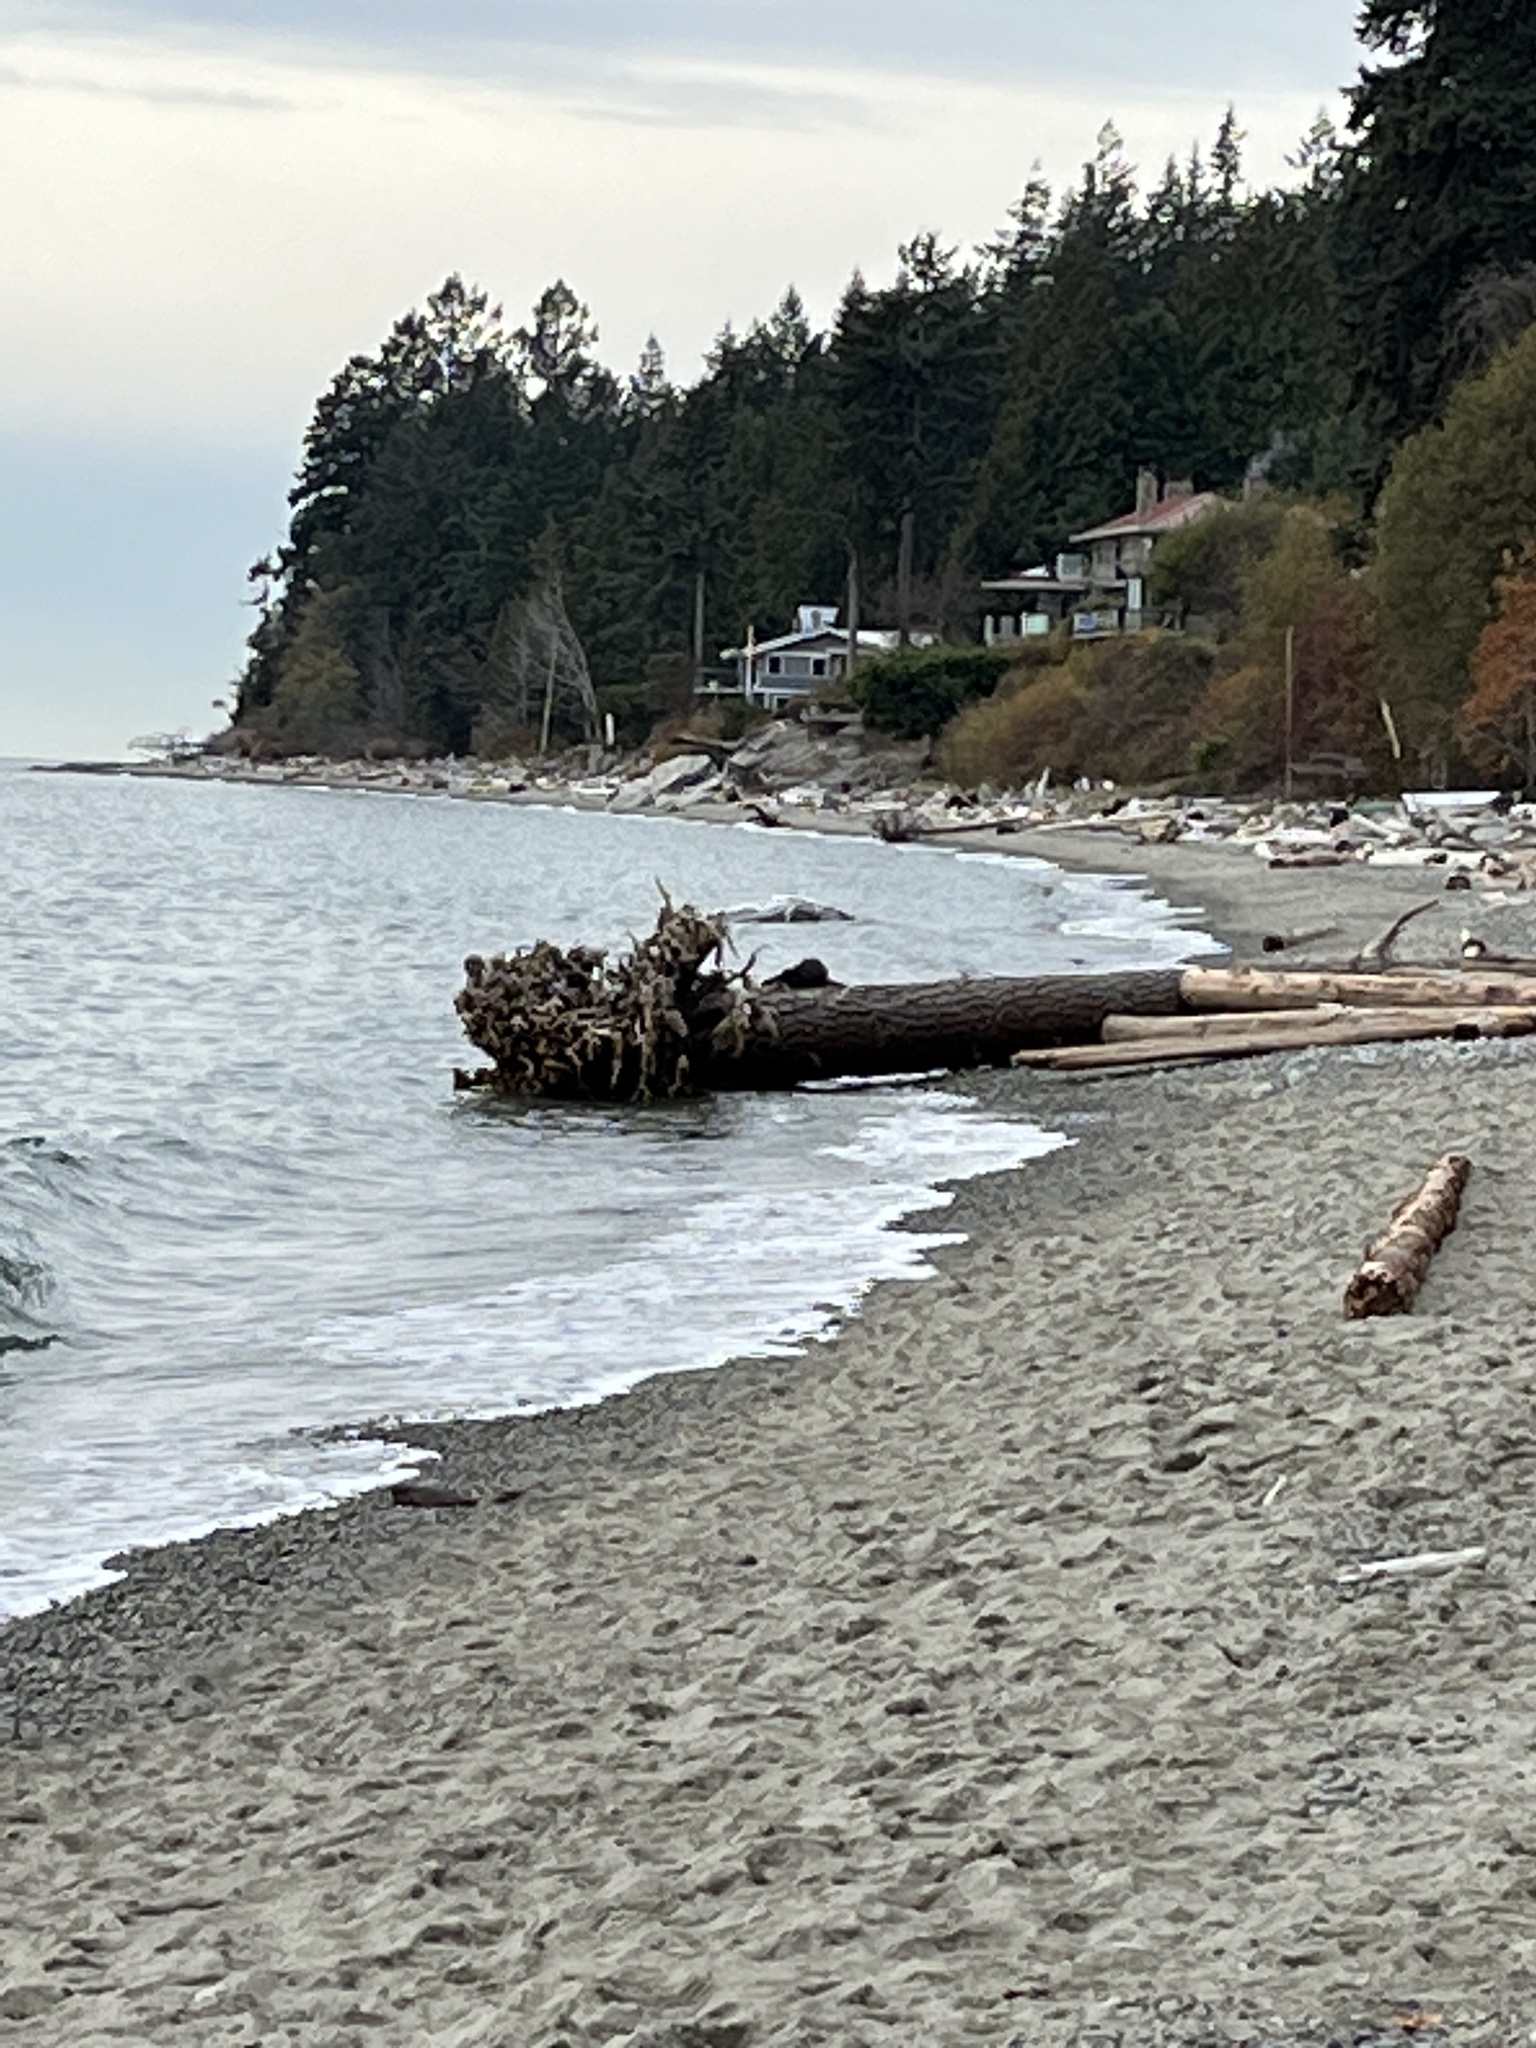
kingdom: Animalia
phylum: Chordata
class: Mammalia
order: Carnivora
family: Mustelidae
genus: Lontra
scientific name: Lontra canadensis
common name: North american river otter
